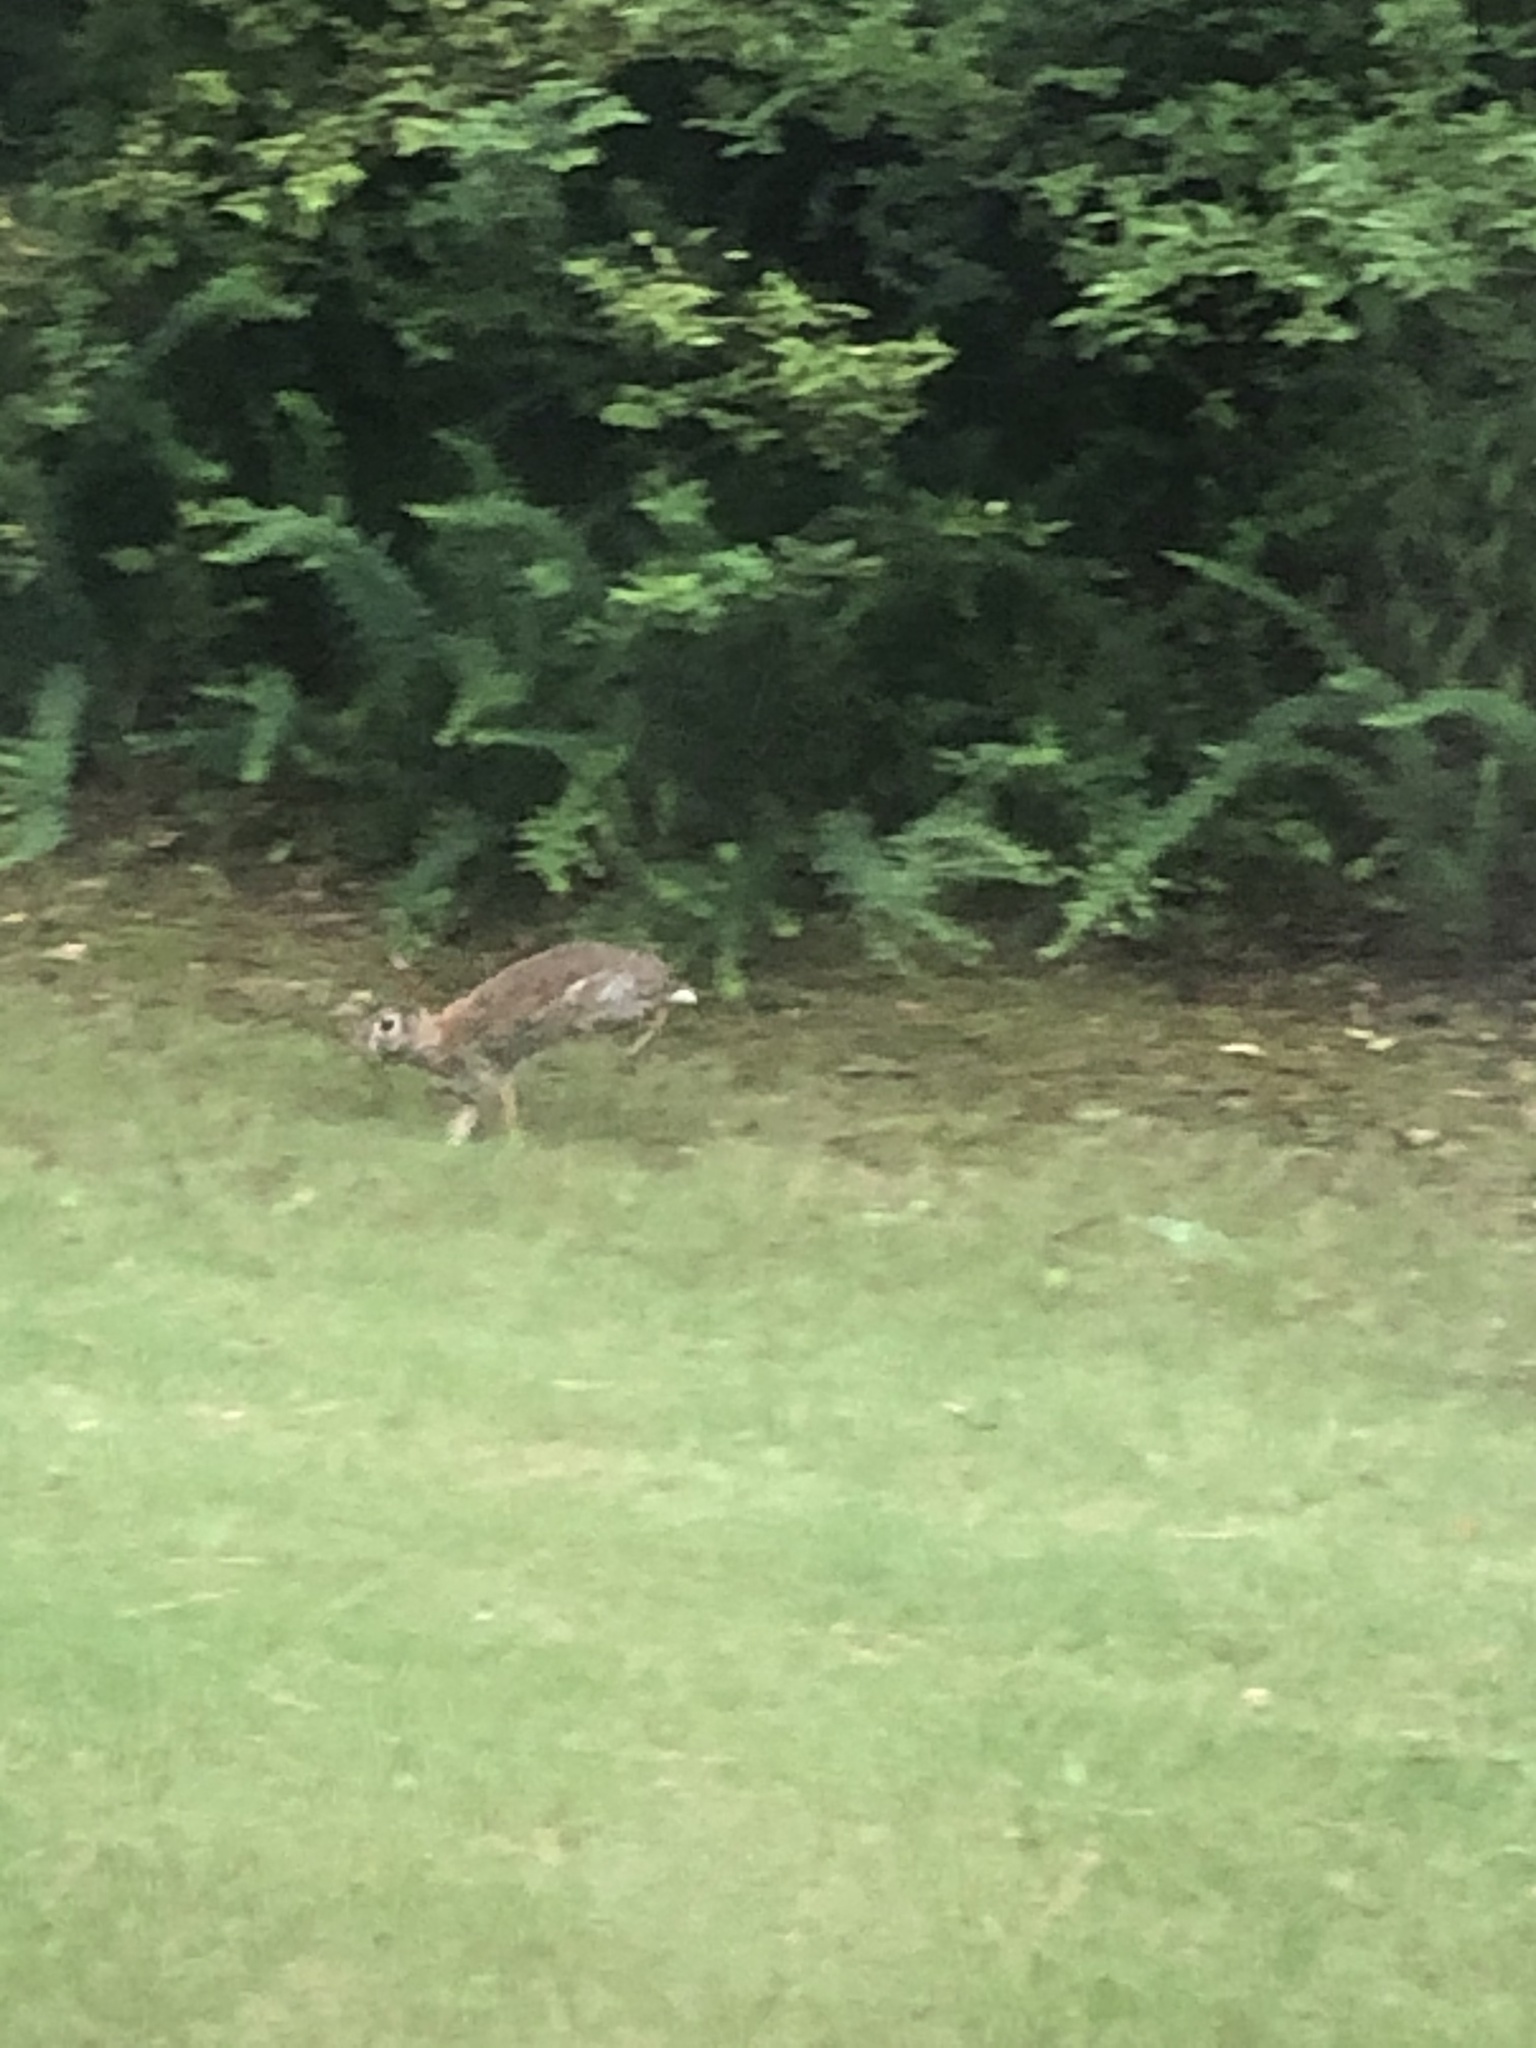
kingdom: Animalia
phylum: Chordata
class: Mammalia
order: Lagomorpha
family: Leporidae
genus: Sylvilagus
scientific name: Sylvilagus floridanus
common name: Eastern cottontail
